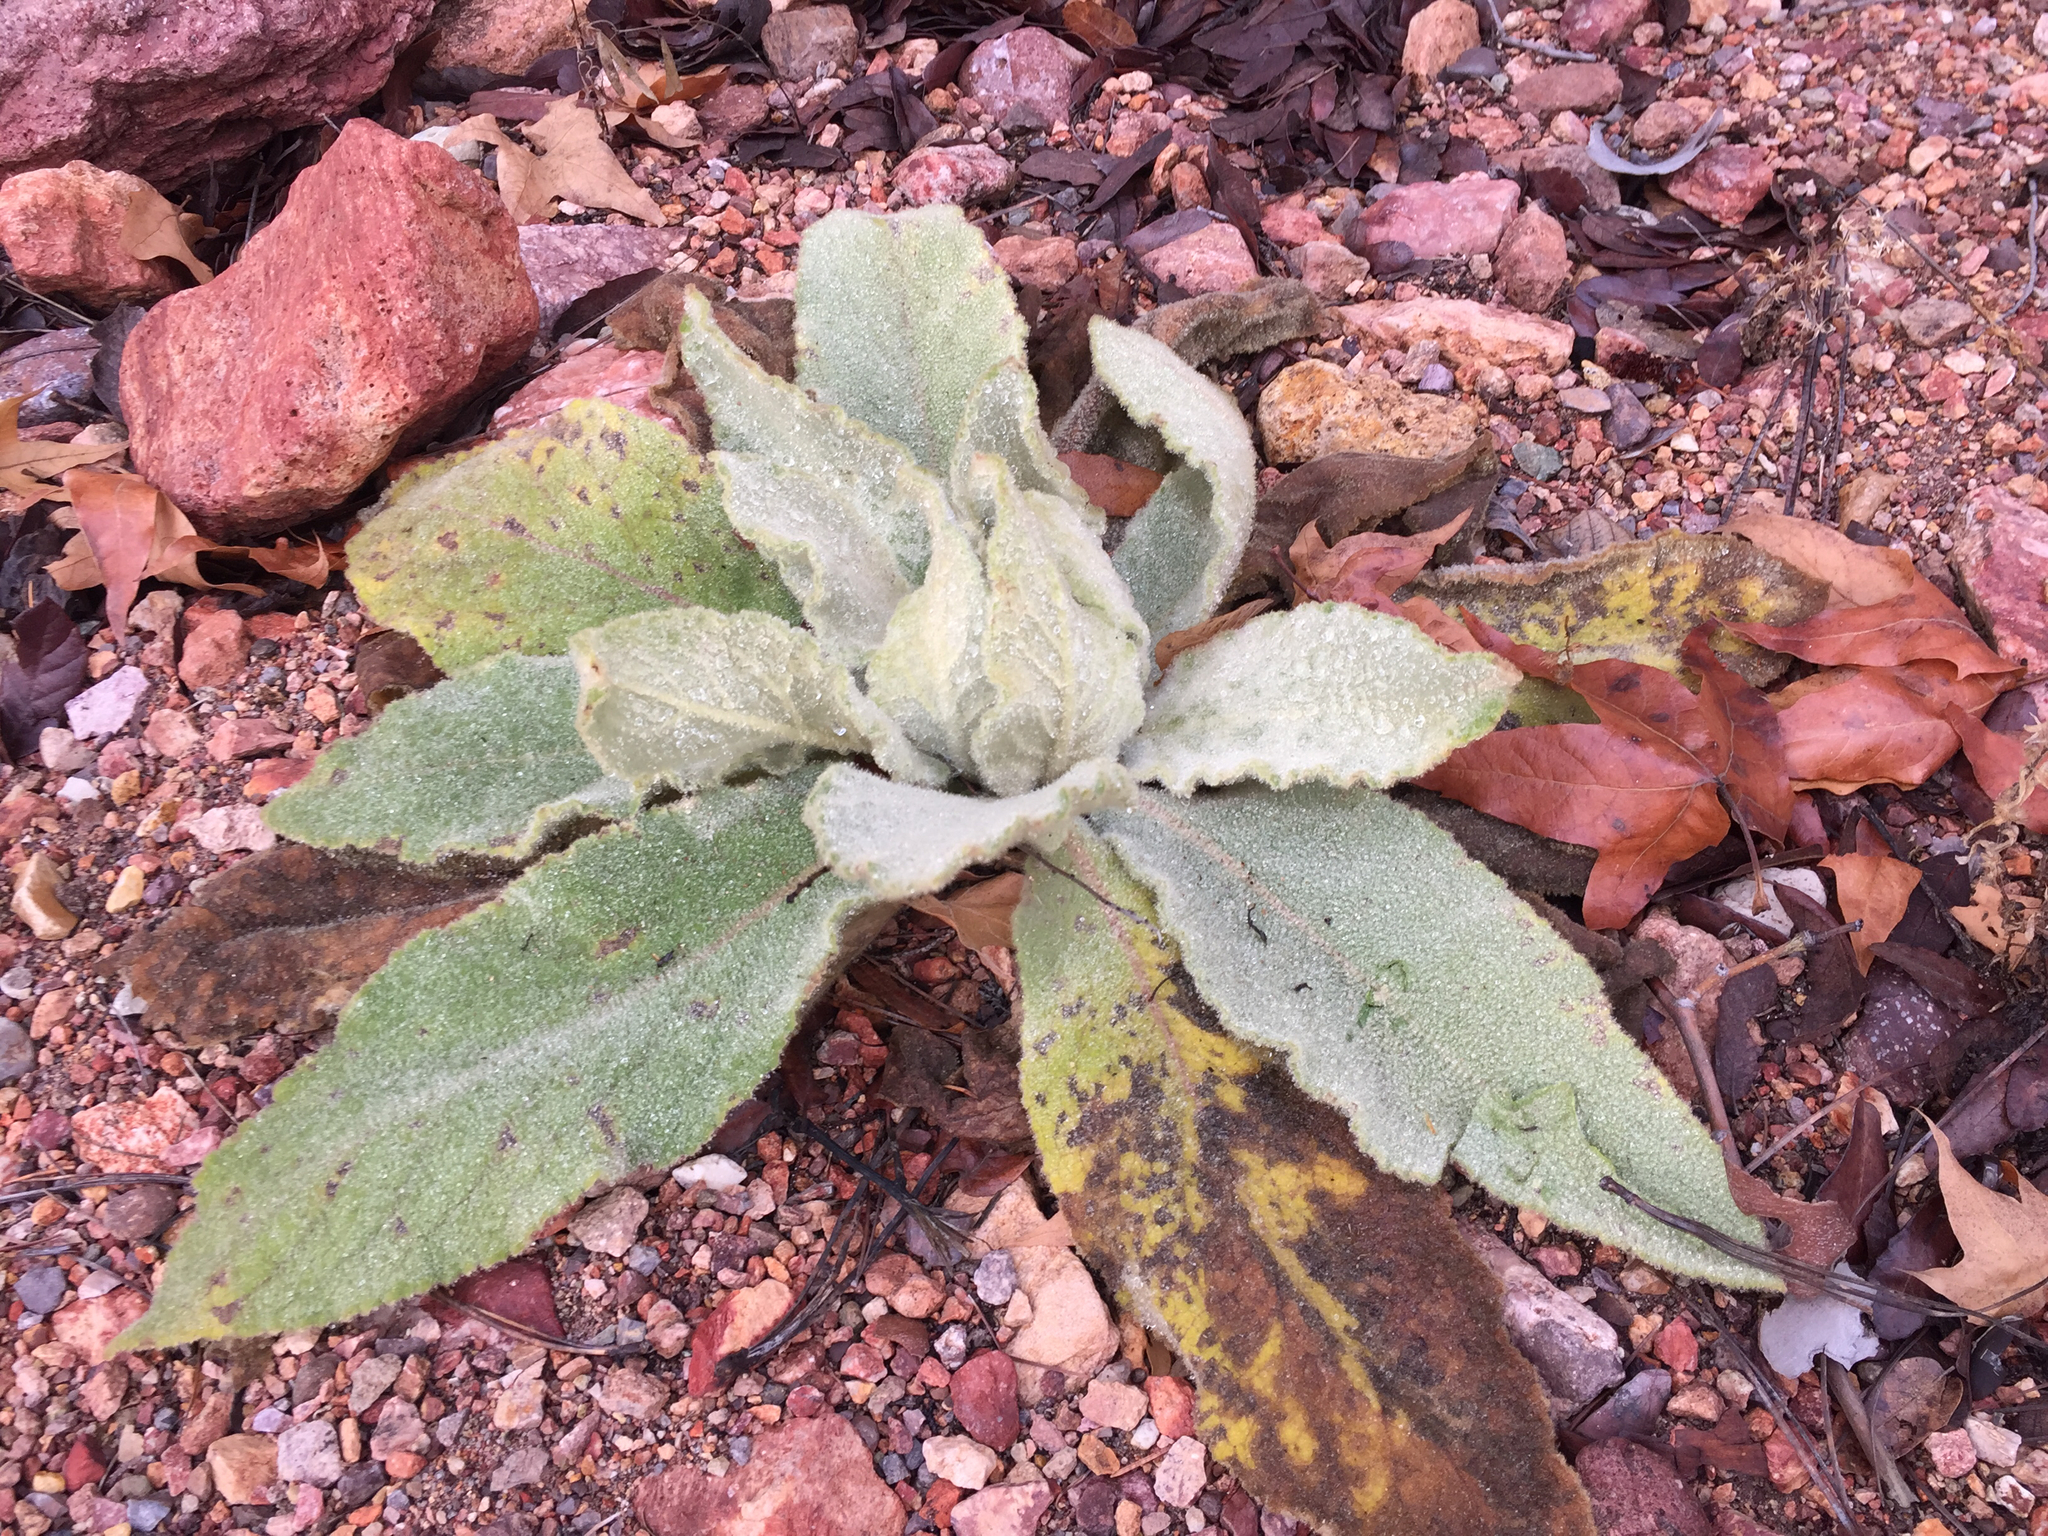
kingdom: Plantae
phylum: Tracheophyta
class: Magnoliopsida
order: Lamiales
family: Scrophulariaceae
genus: Verbascum
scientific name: Verbascum thapsus
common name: Common mullein
